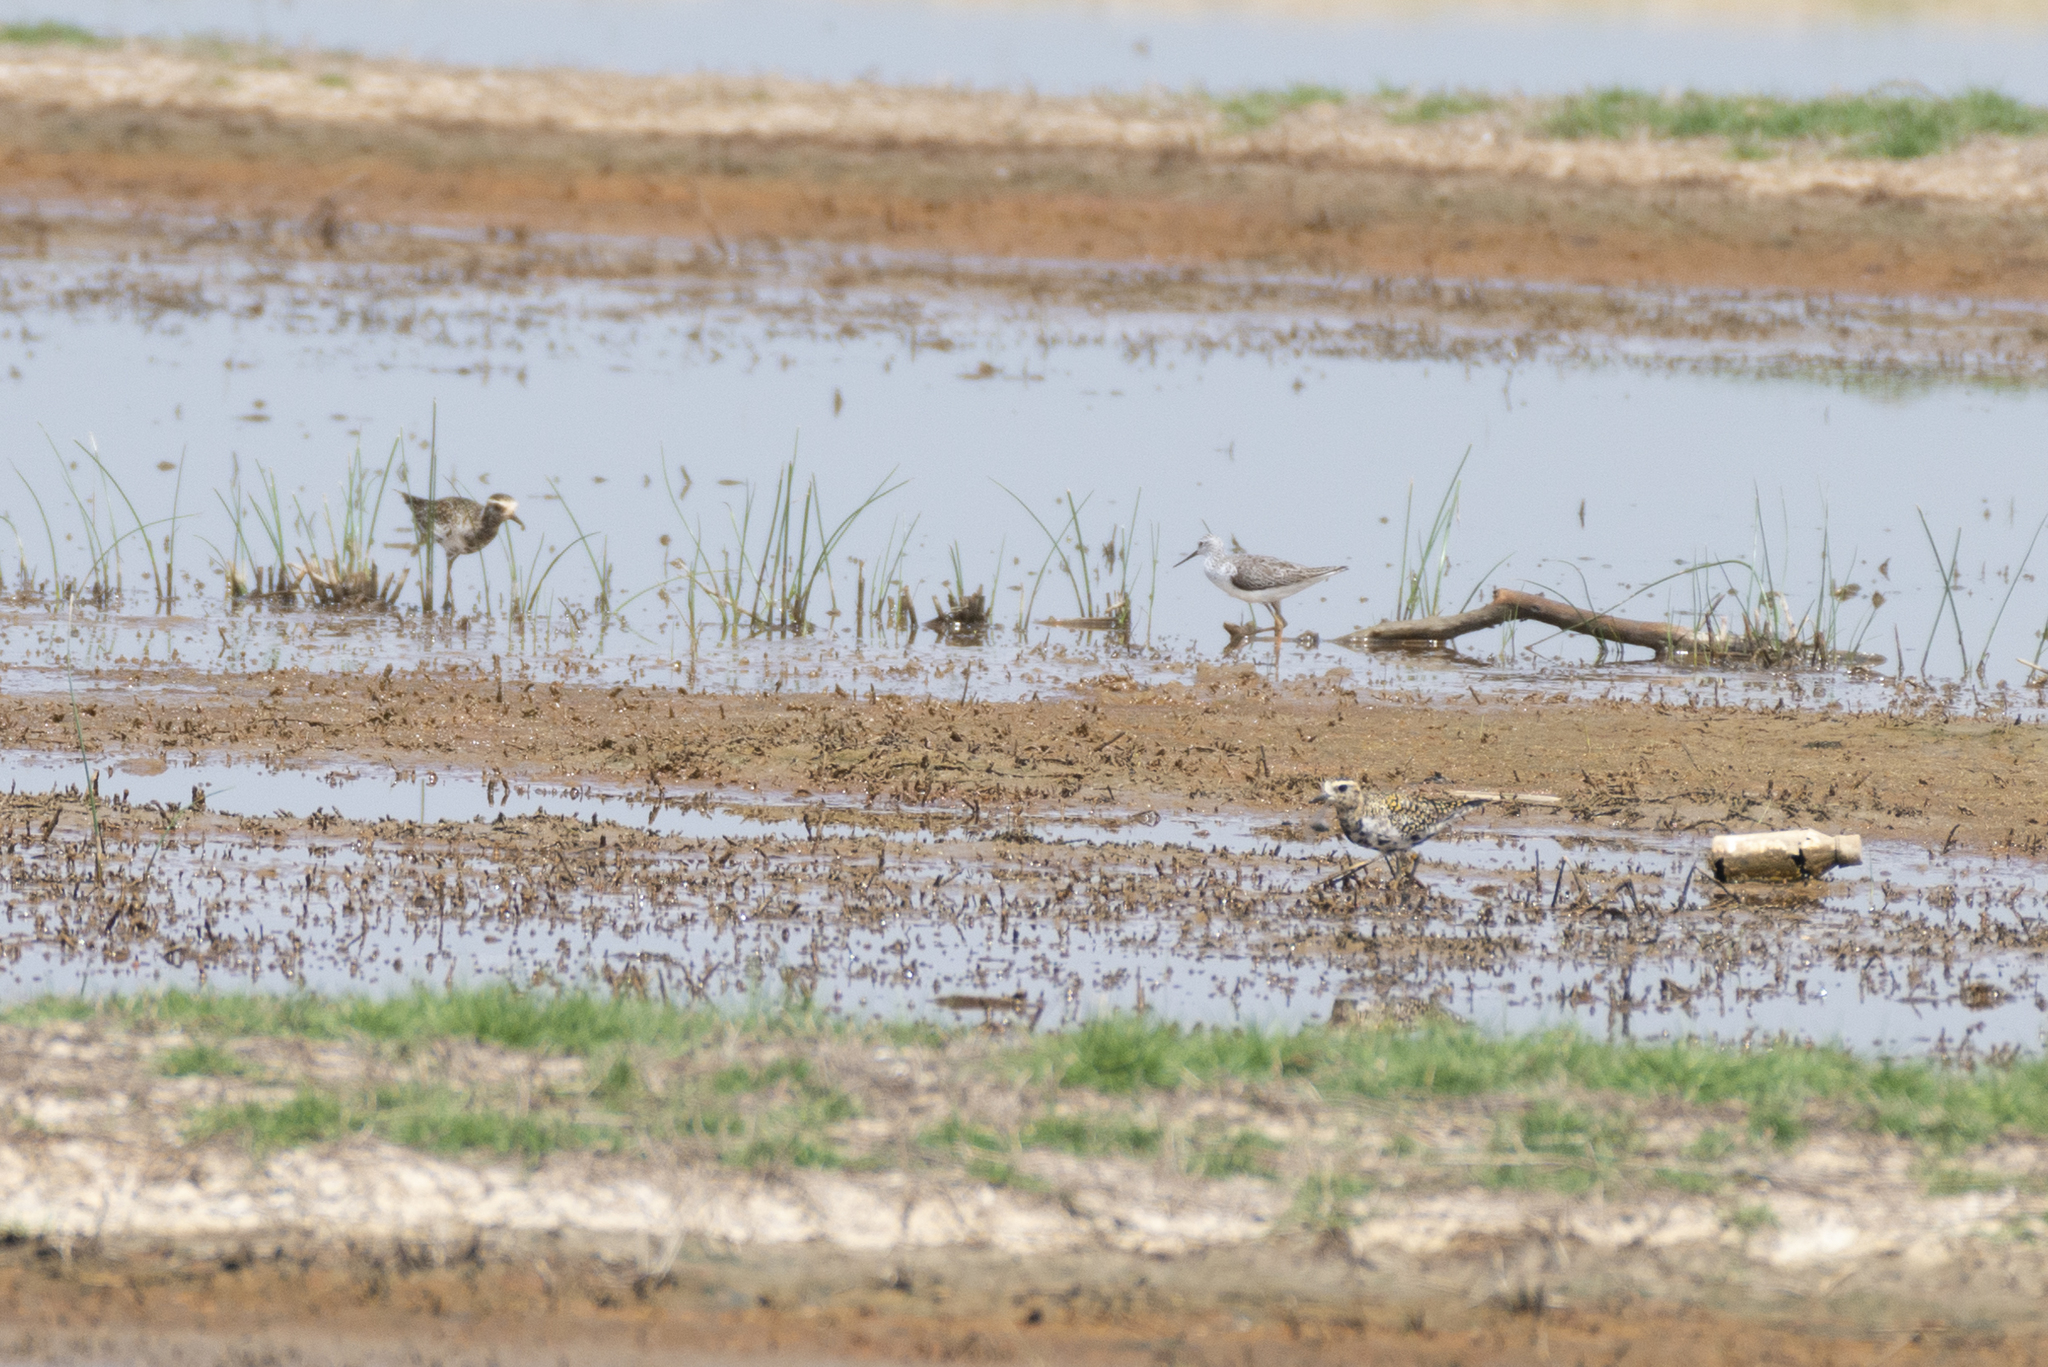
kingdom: Animalia
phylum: Chordata
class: Aves
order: Charadriiformes
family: Charadriidae
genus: Pluvialis
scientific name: Pluvialis fulva
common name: Pacific golden plover
